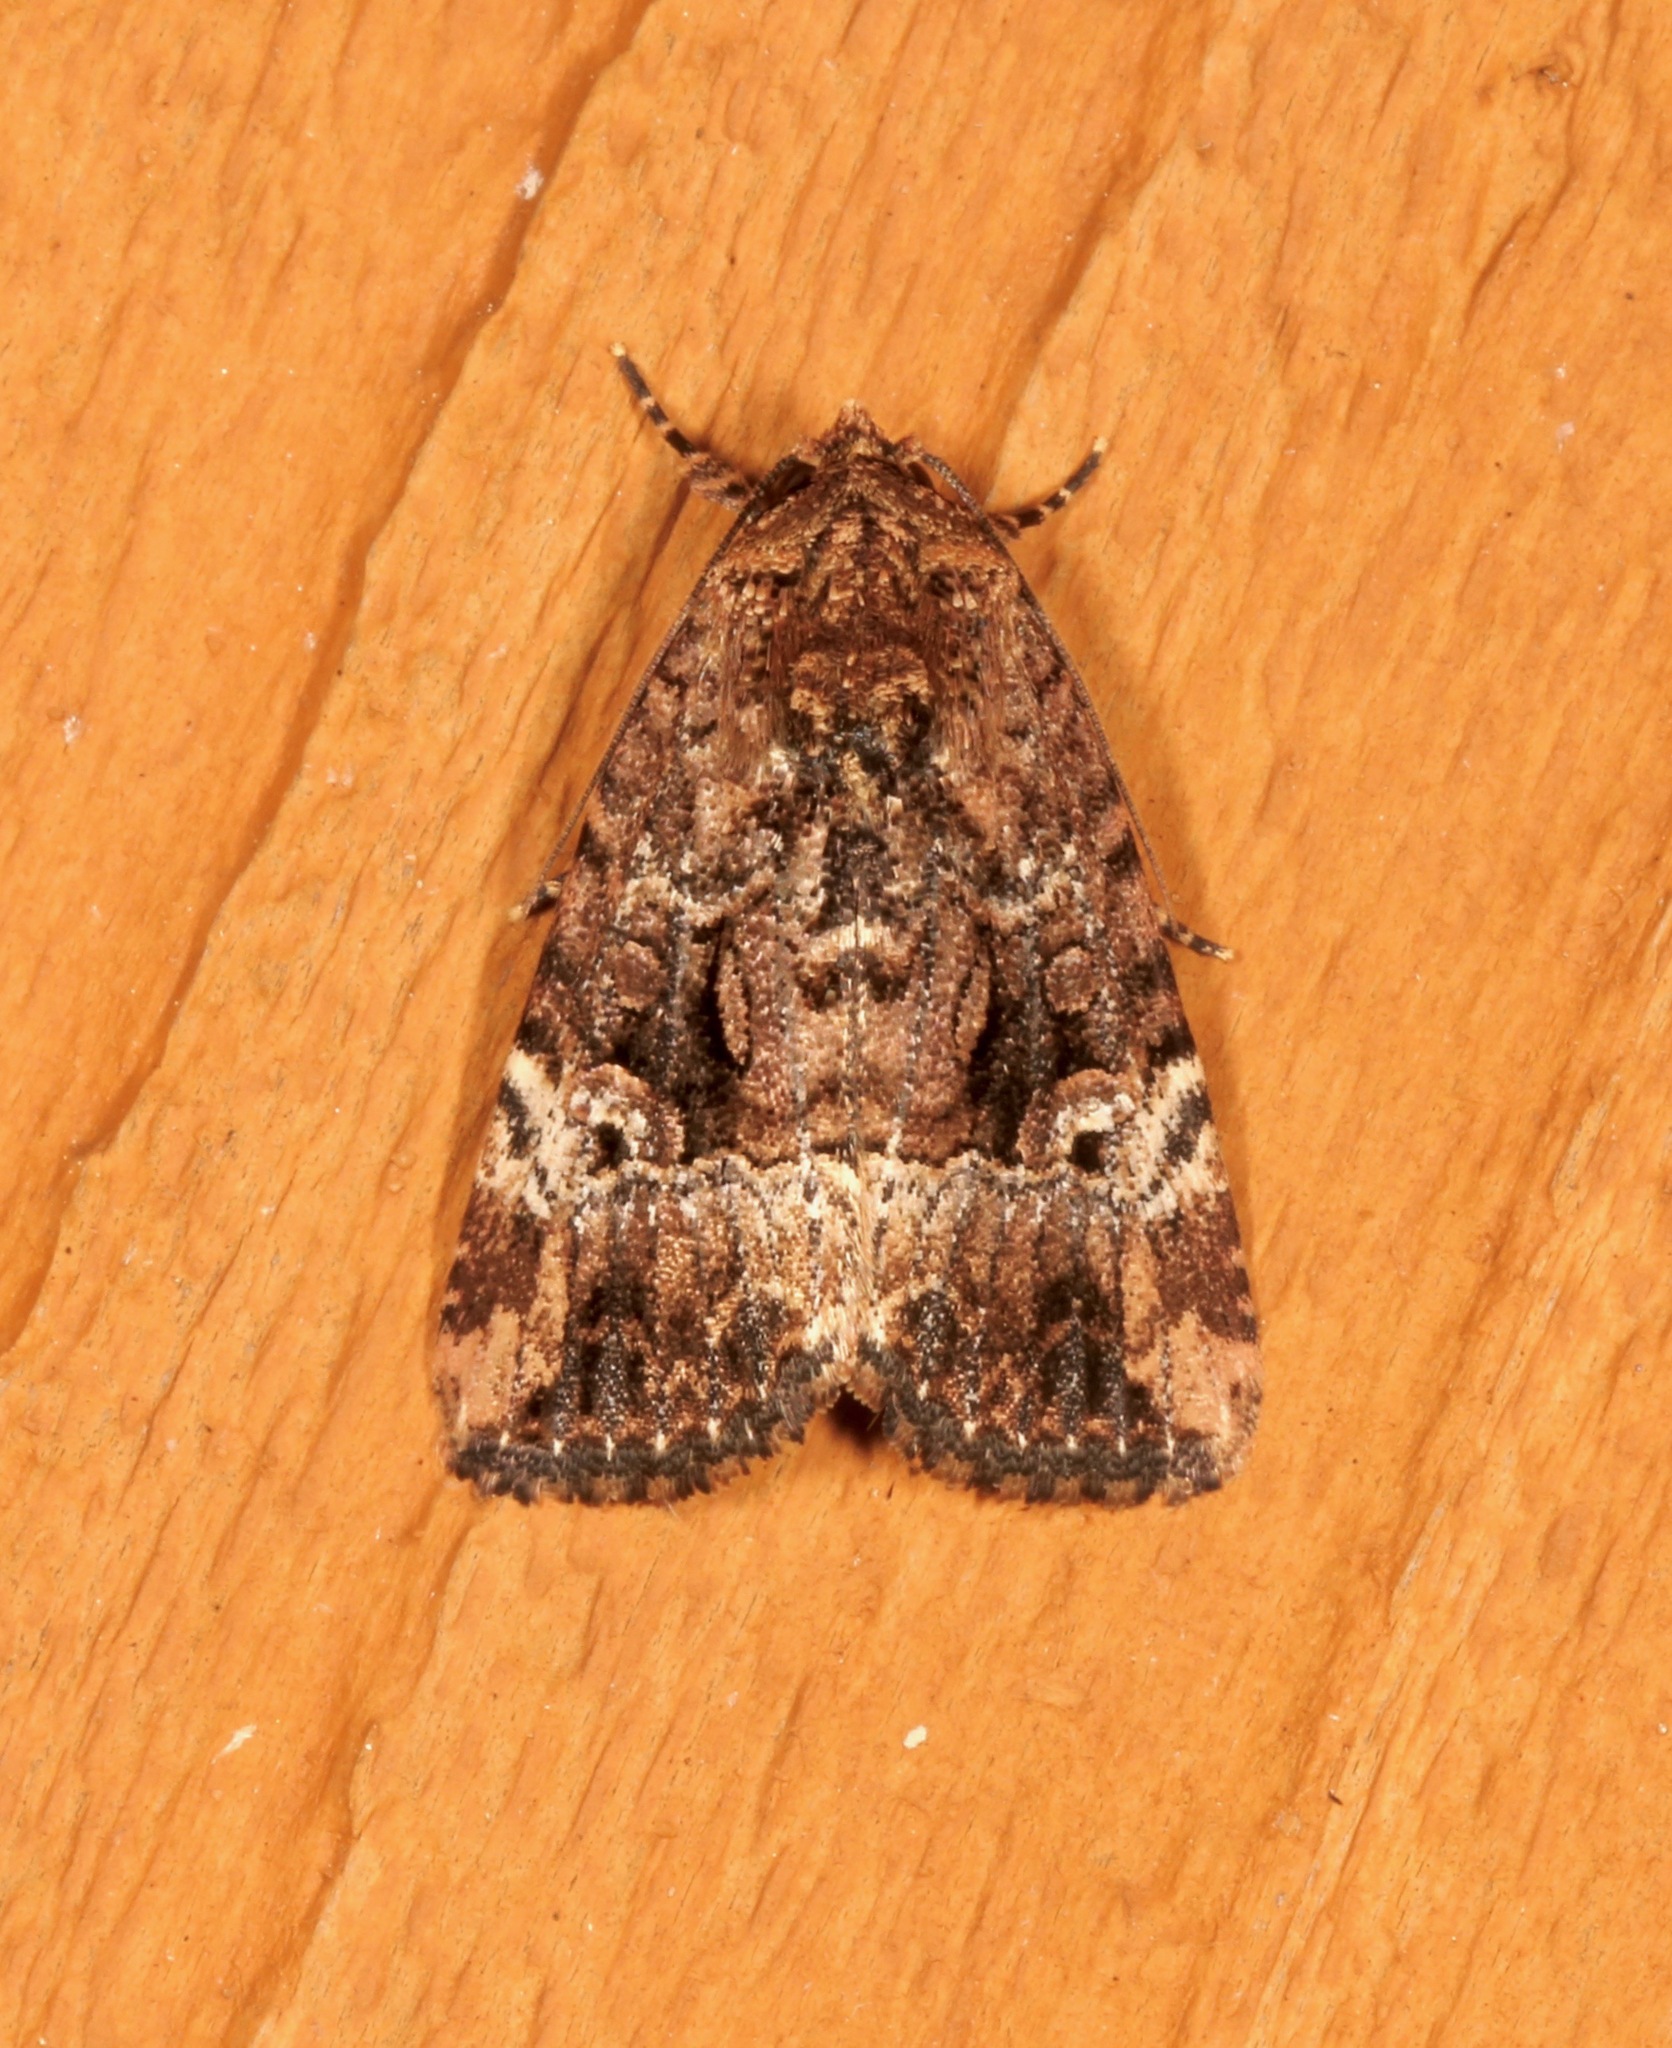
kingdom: Animalia
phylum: Arthropoda
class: Insecta
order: Lepidoptera
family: Noctuidae
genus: Elaphria
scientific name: Elaphria chalcedonia
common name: Chalcedony midget
